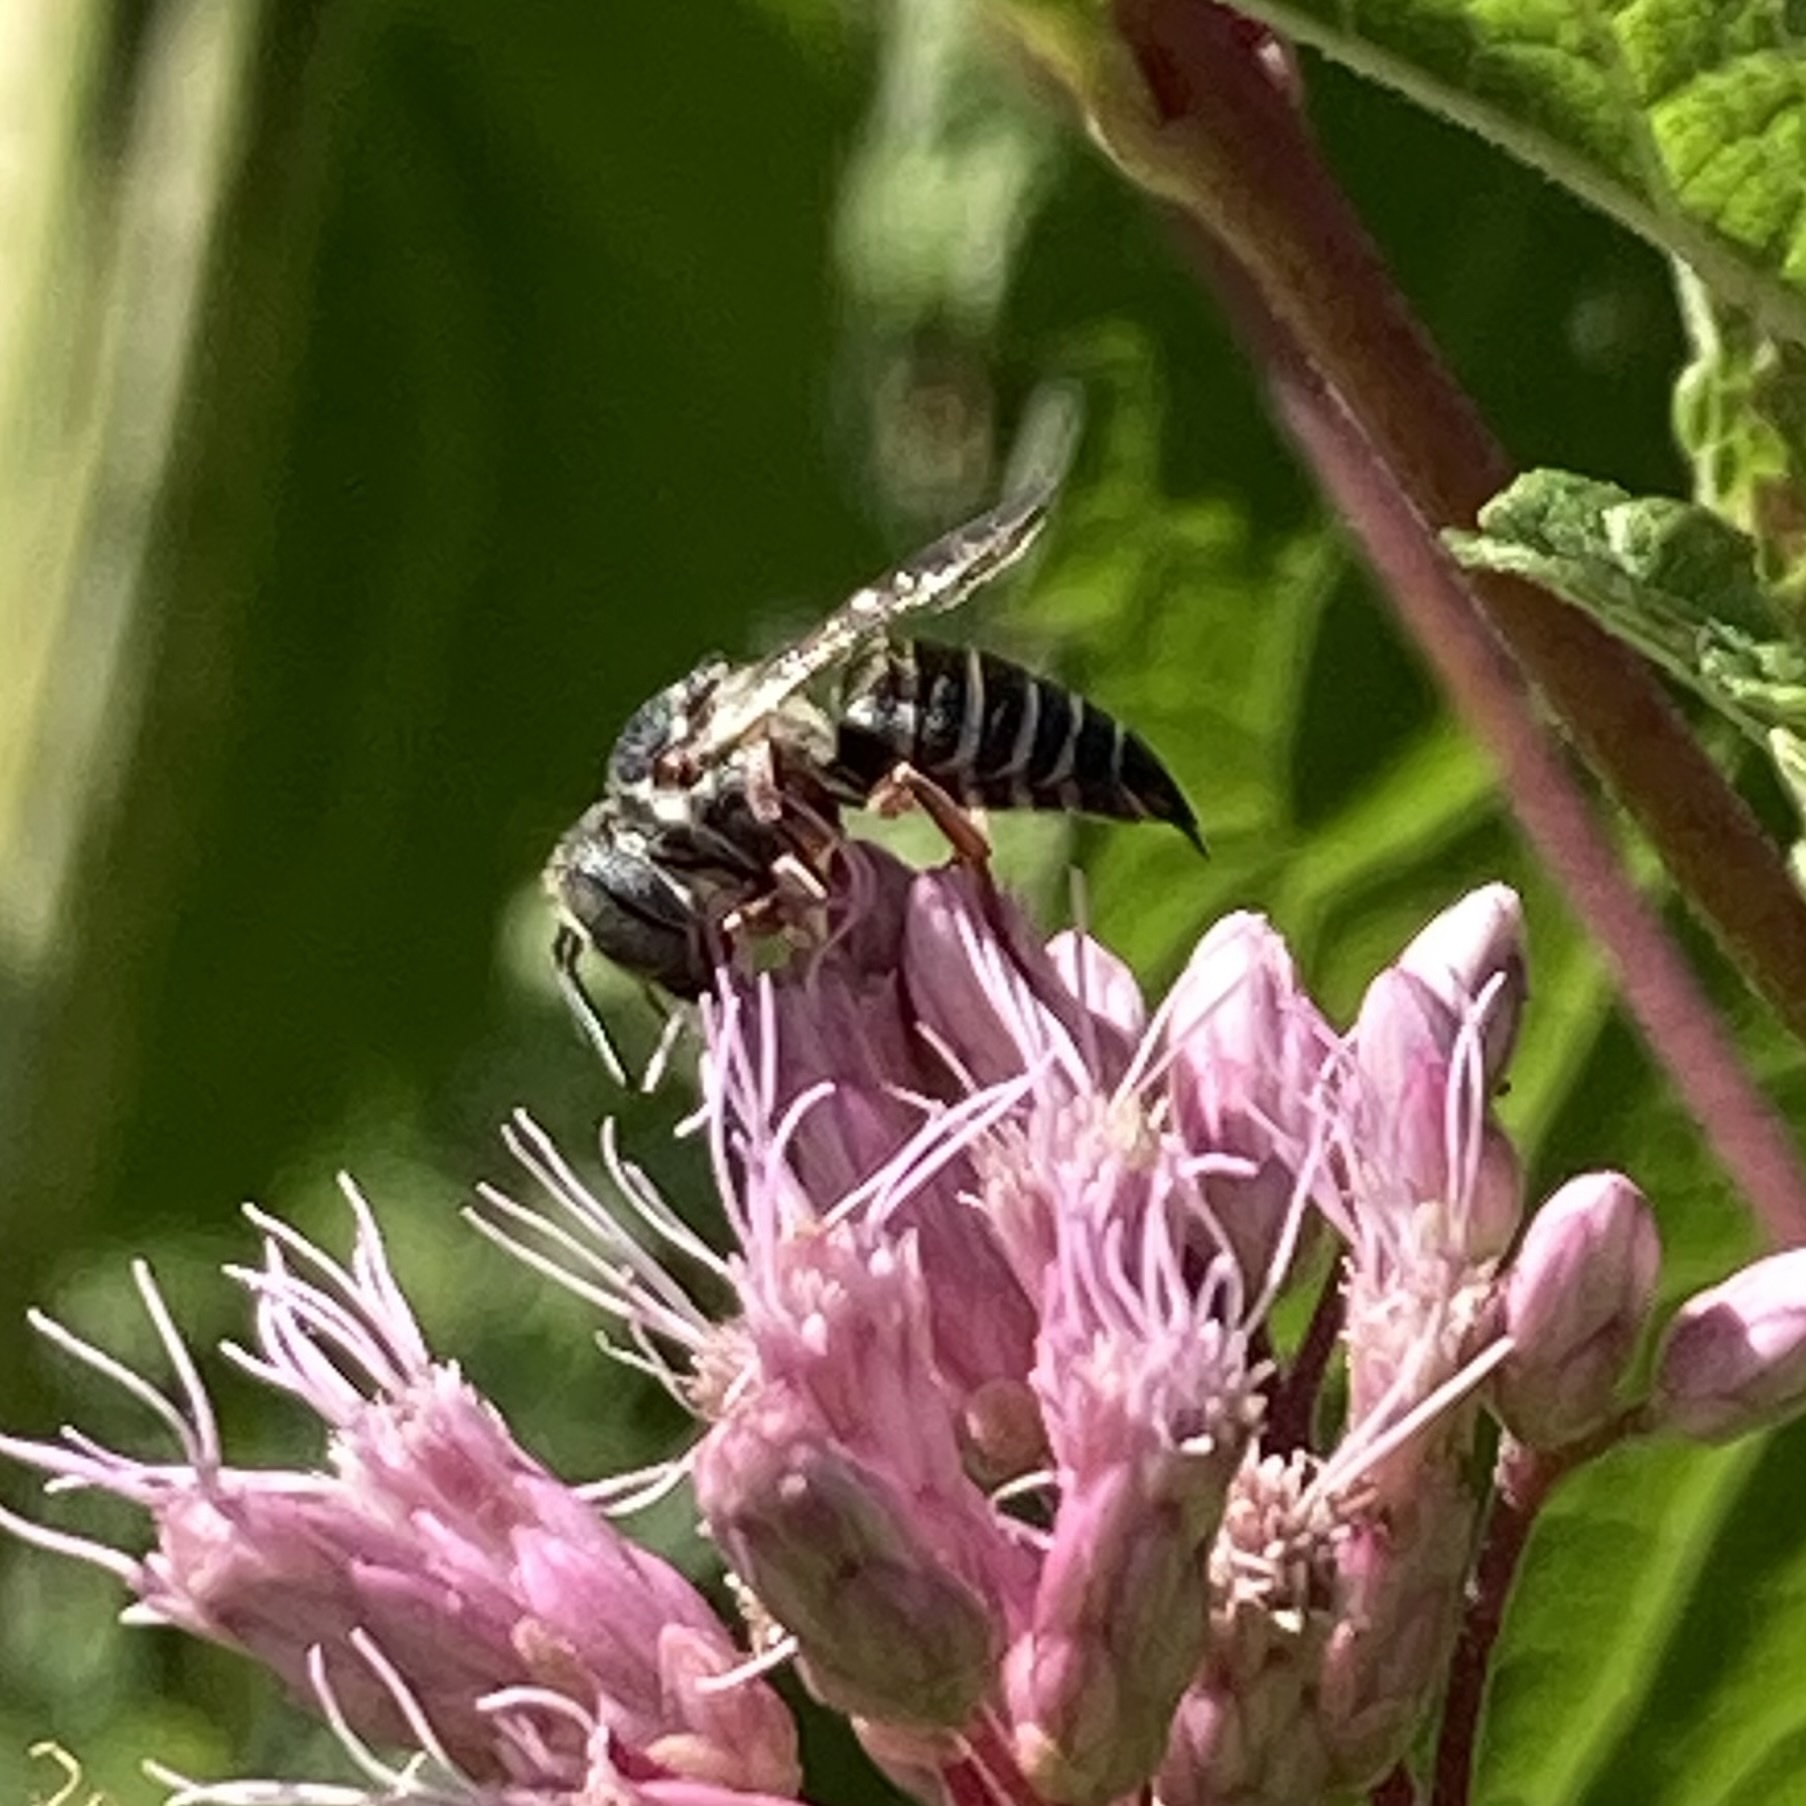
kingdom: Animalia
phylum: Arthropoda
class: Insecta
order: Hymenoptera
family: Megachilidae
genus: Coelioxys
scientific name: Coelioxys octodentatus
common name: Eight-toothed cuckoo leaf-cutter bee
